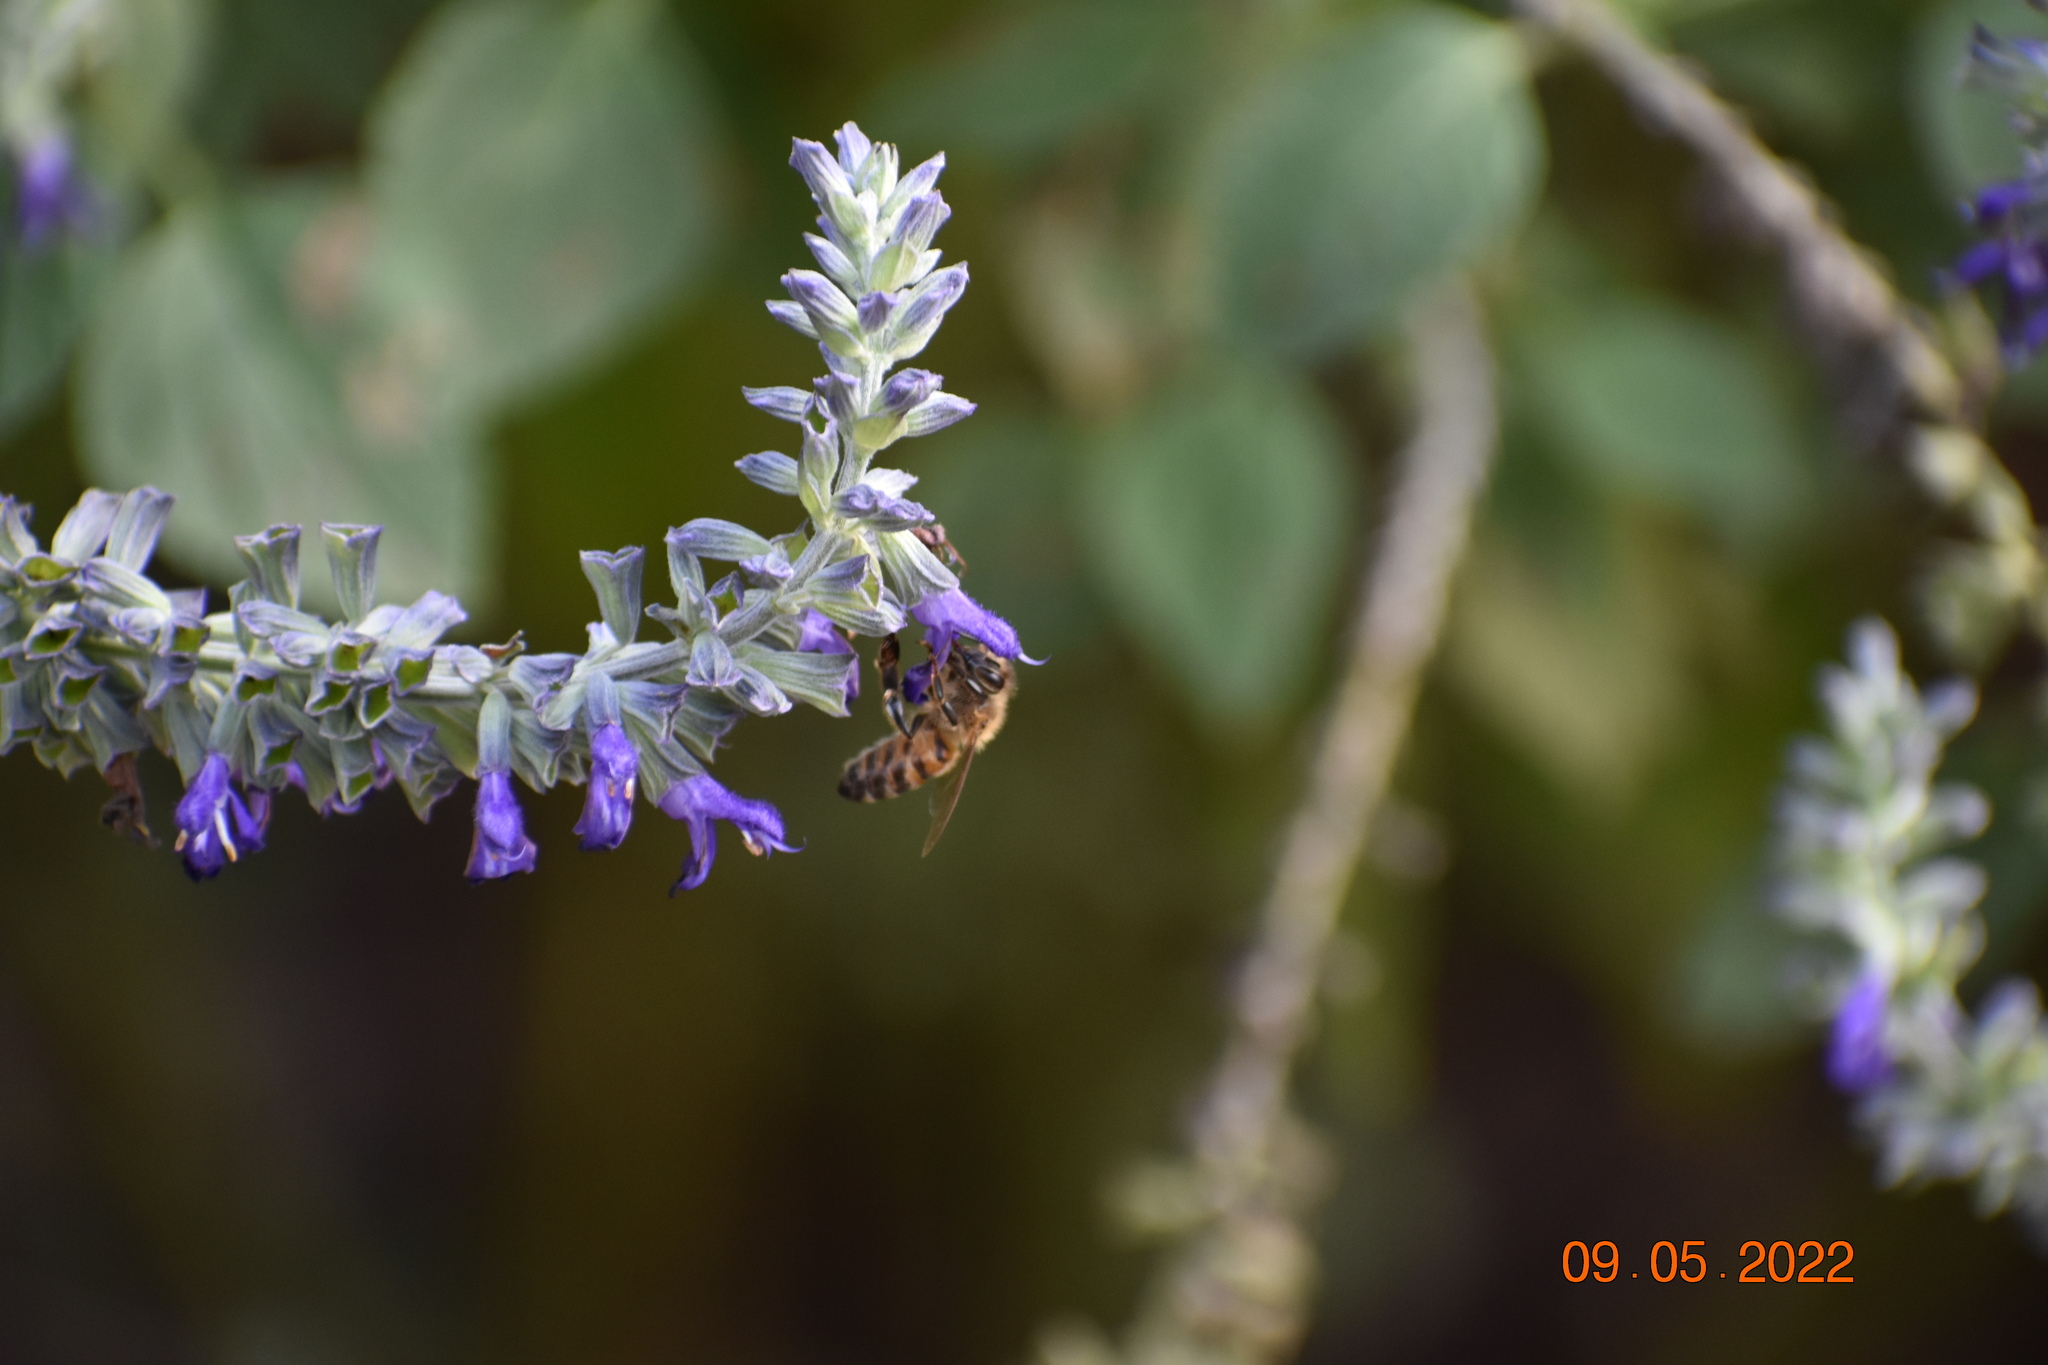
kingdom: Animalia
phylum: Arthropoda
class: Insecta
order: Hymenoptera
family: Apidae
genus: Apis
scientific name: Apis mellifera
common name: Honey bee
